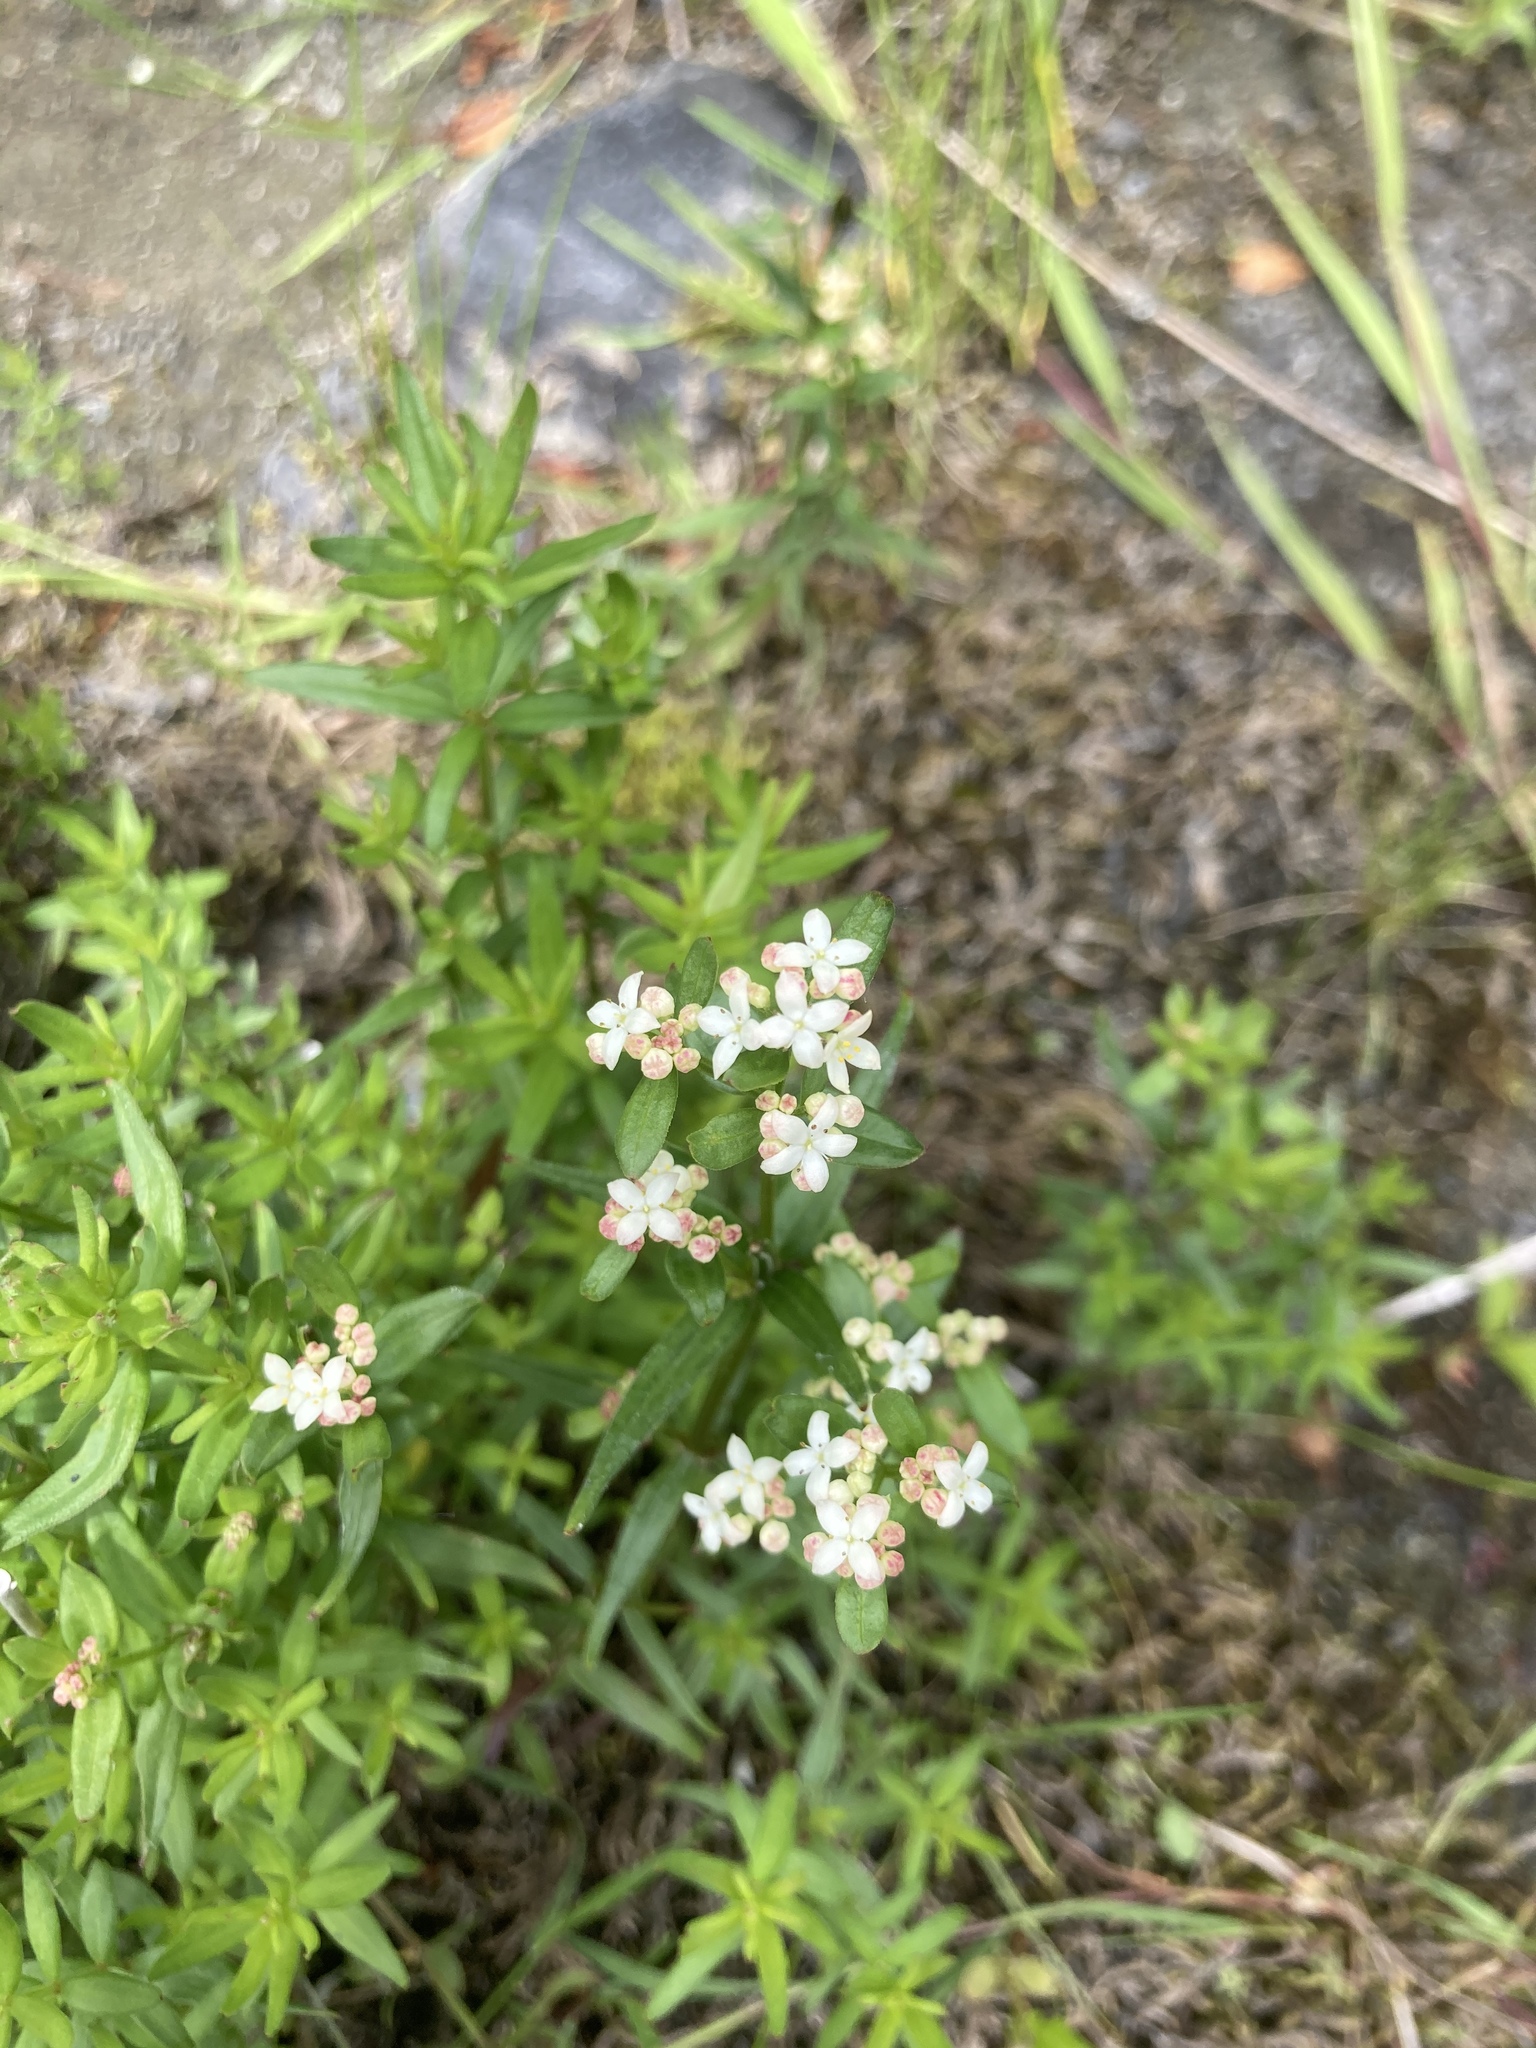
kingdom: Plantae
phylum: Tracheophyta
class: Magnoliopsida
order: Gentianales
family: Rubiaceae
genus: Galium
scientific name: Galium boreale
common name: Northern bedstraw
